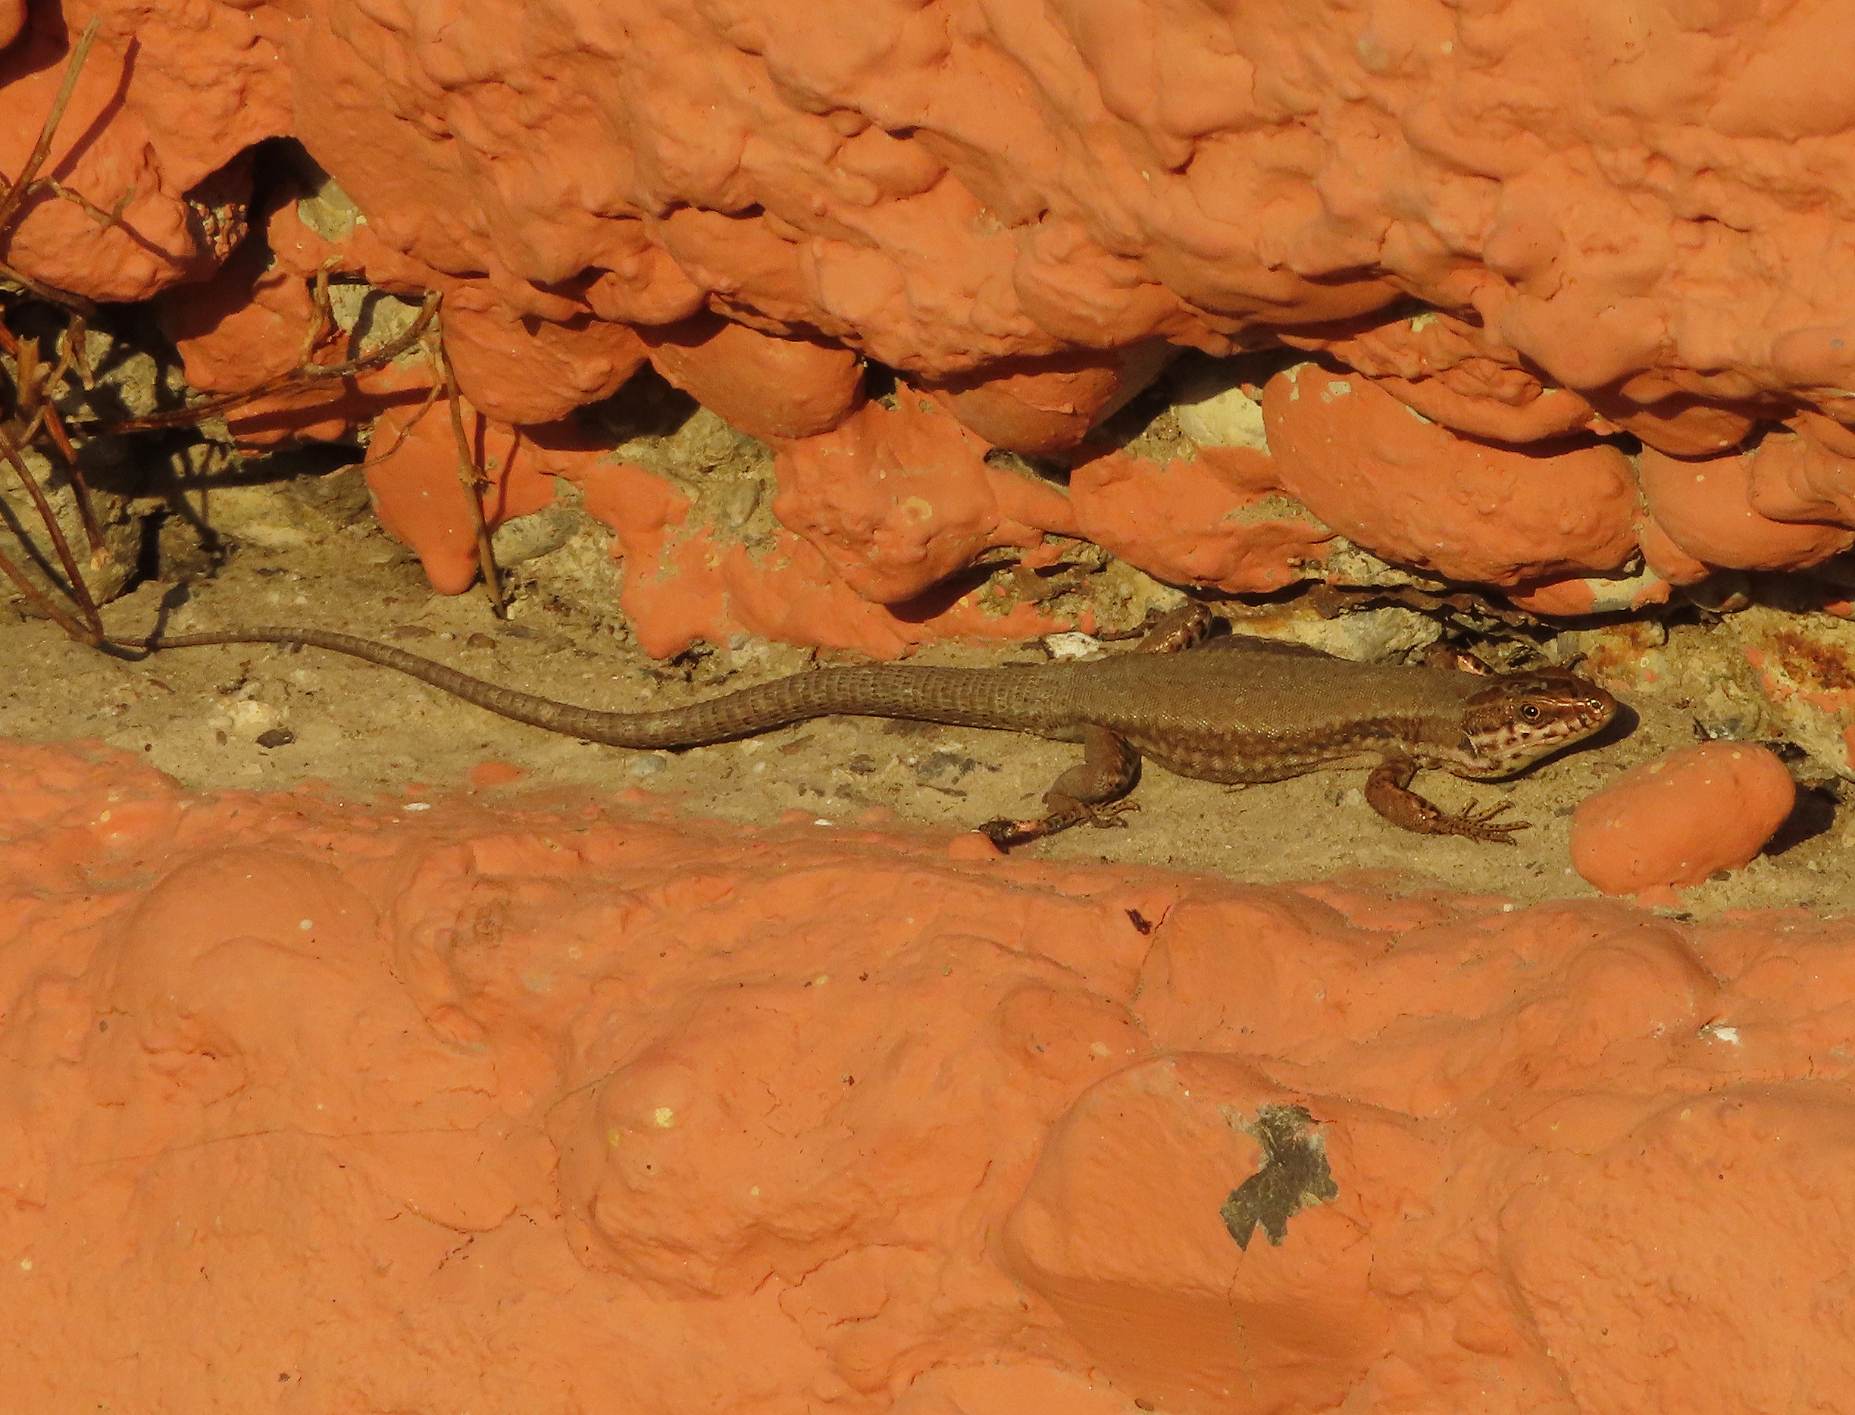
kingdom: Animalia
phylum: Chordata
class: Squamata
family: Lacertidae
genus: Podarcis
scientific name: Podarcis muralis
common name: Common wall lizard
